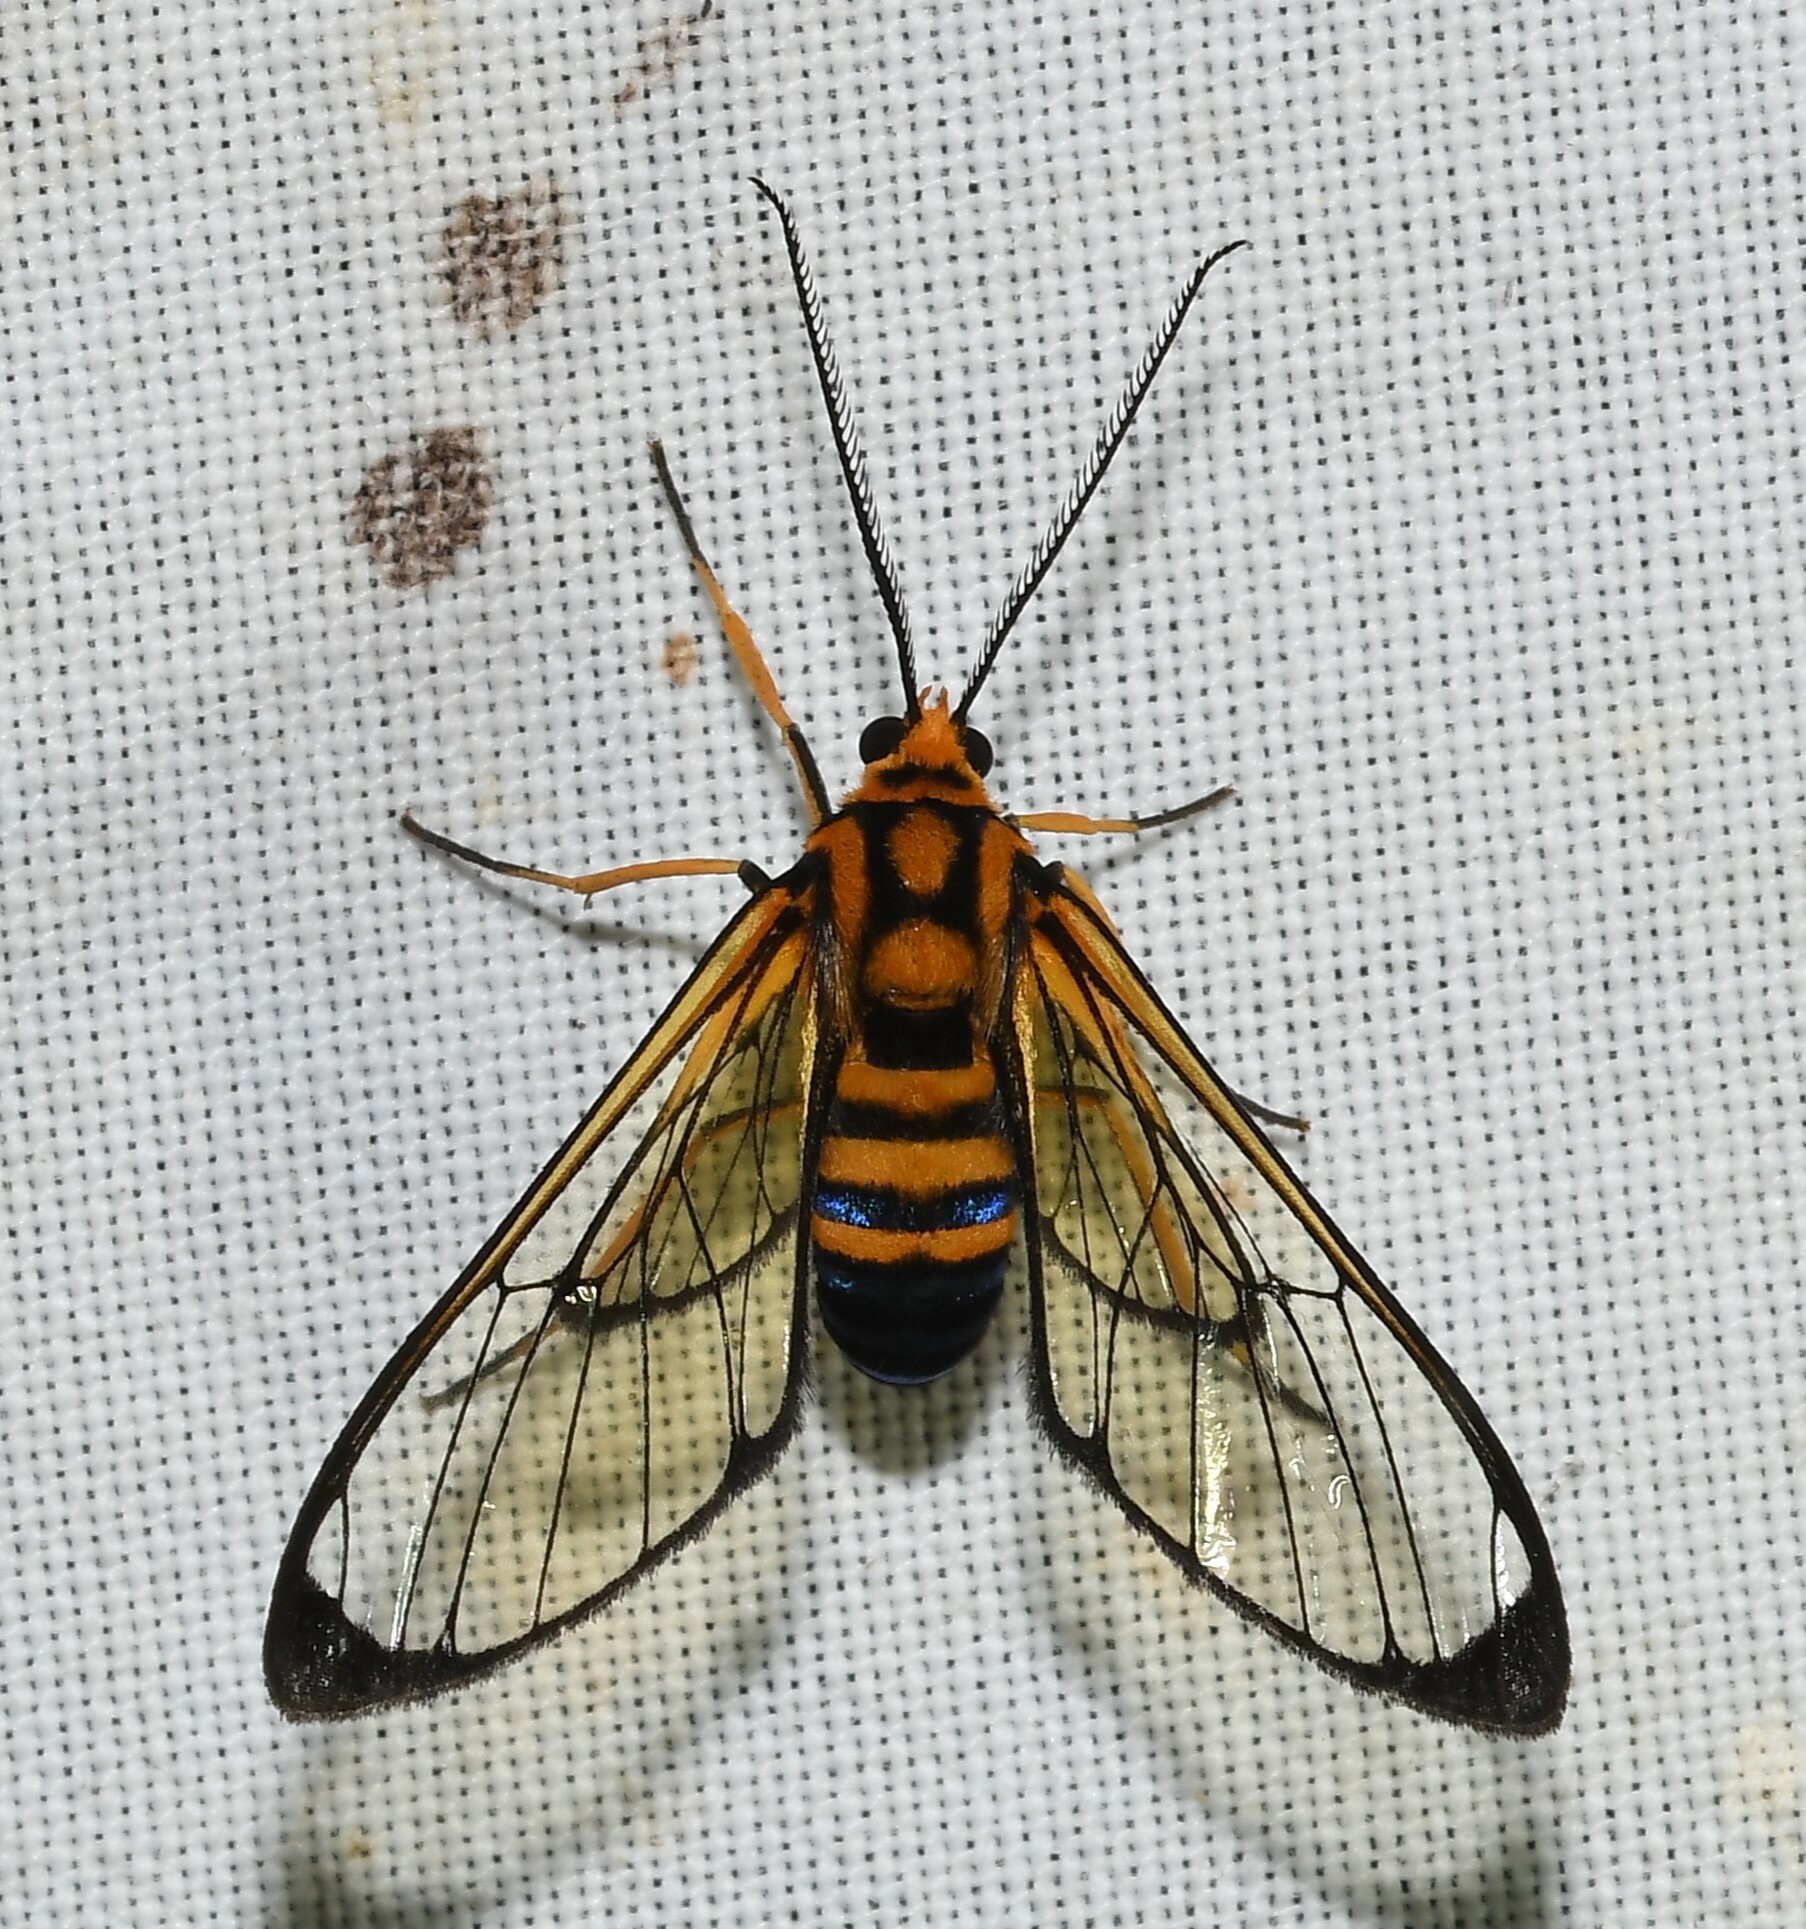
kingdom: Animalia
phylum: Arthropoda
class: Insecta
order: Lepidoptera
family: Erebidae
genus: Mesothen
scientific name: Mesothen nomia
